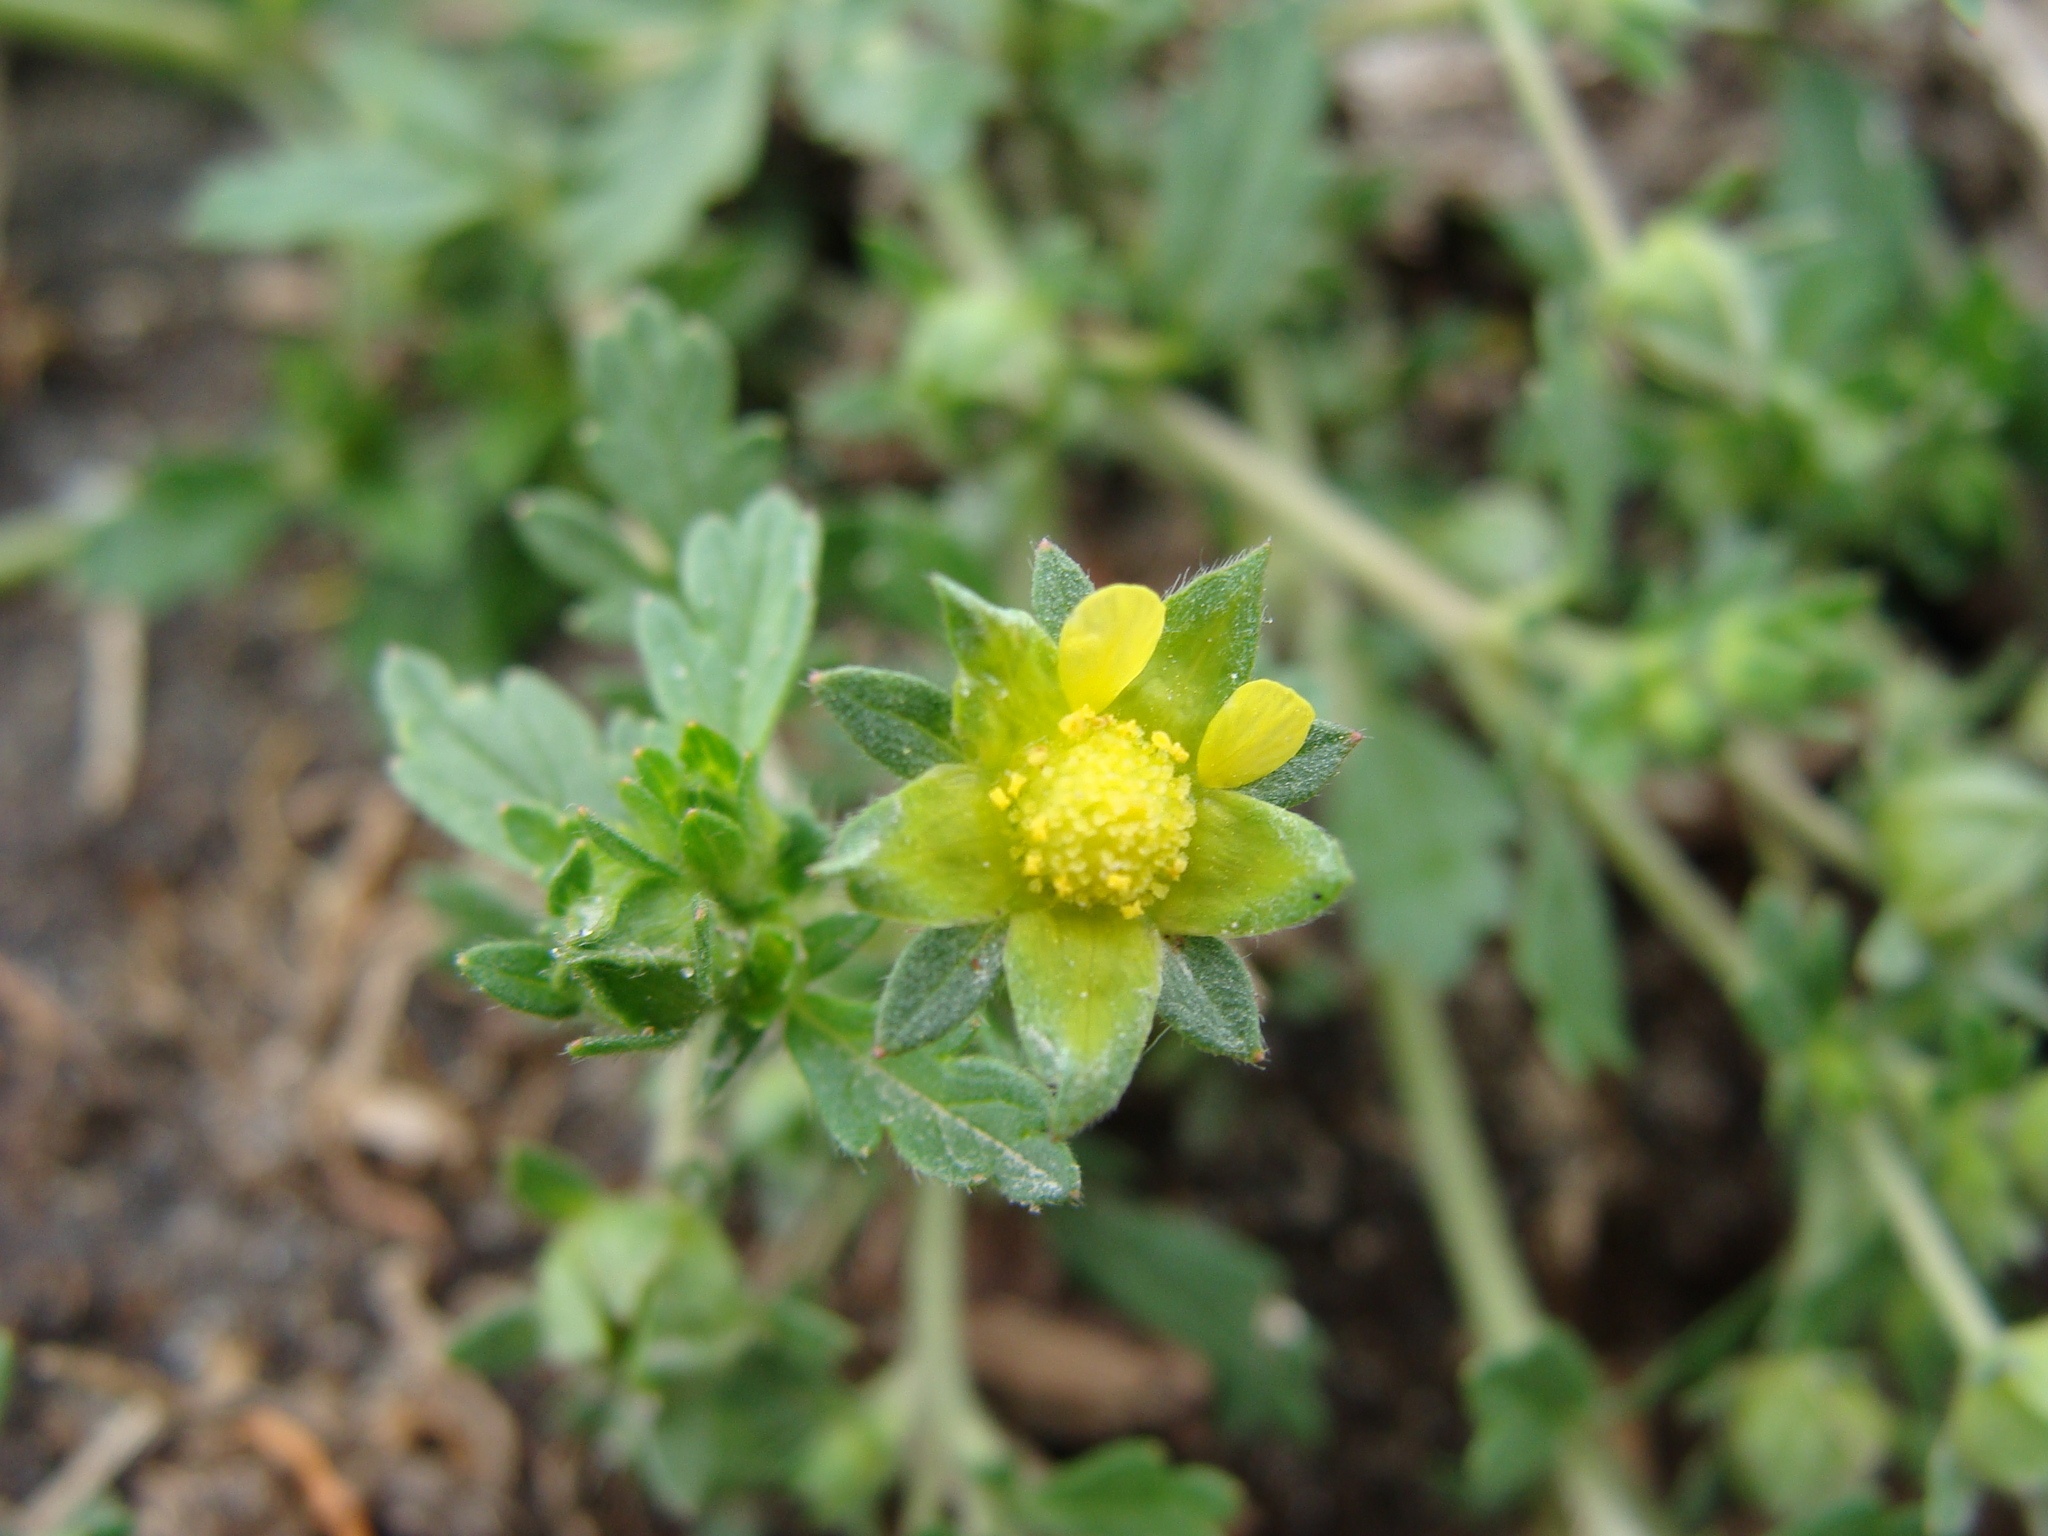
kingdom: Plantae
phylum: Tracheophyta
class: Magnoliopsida
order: Rosales
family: Rosaceae
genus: Potentilla
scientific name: Potentilla rivalis
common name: Brook cinquefoil
